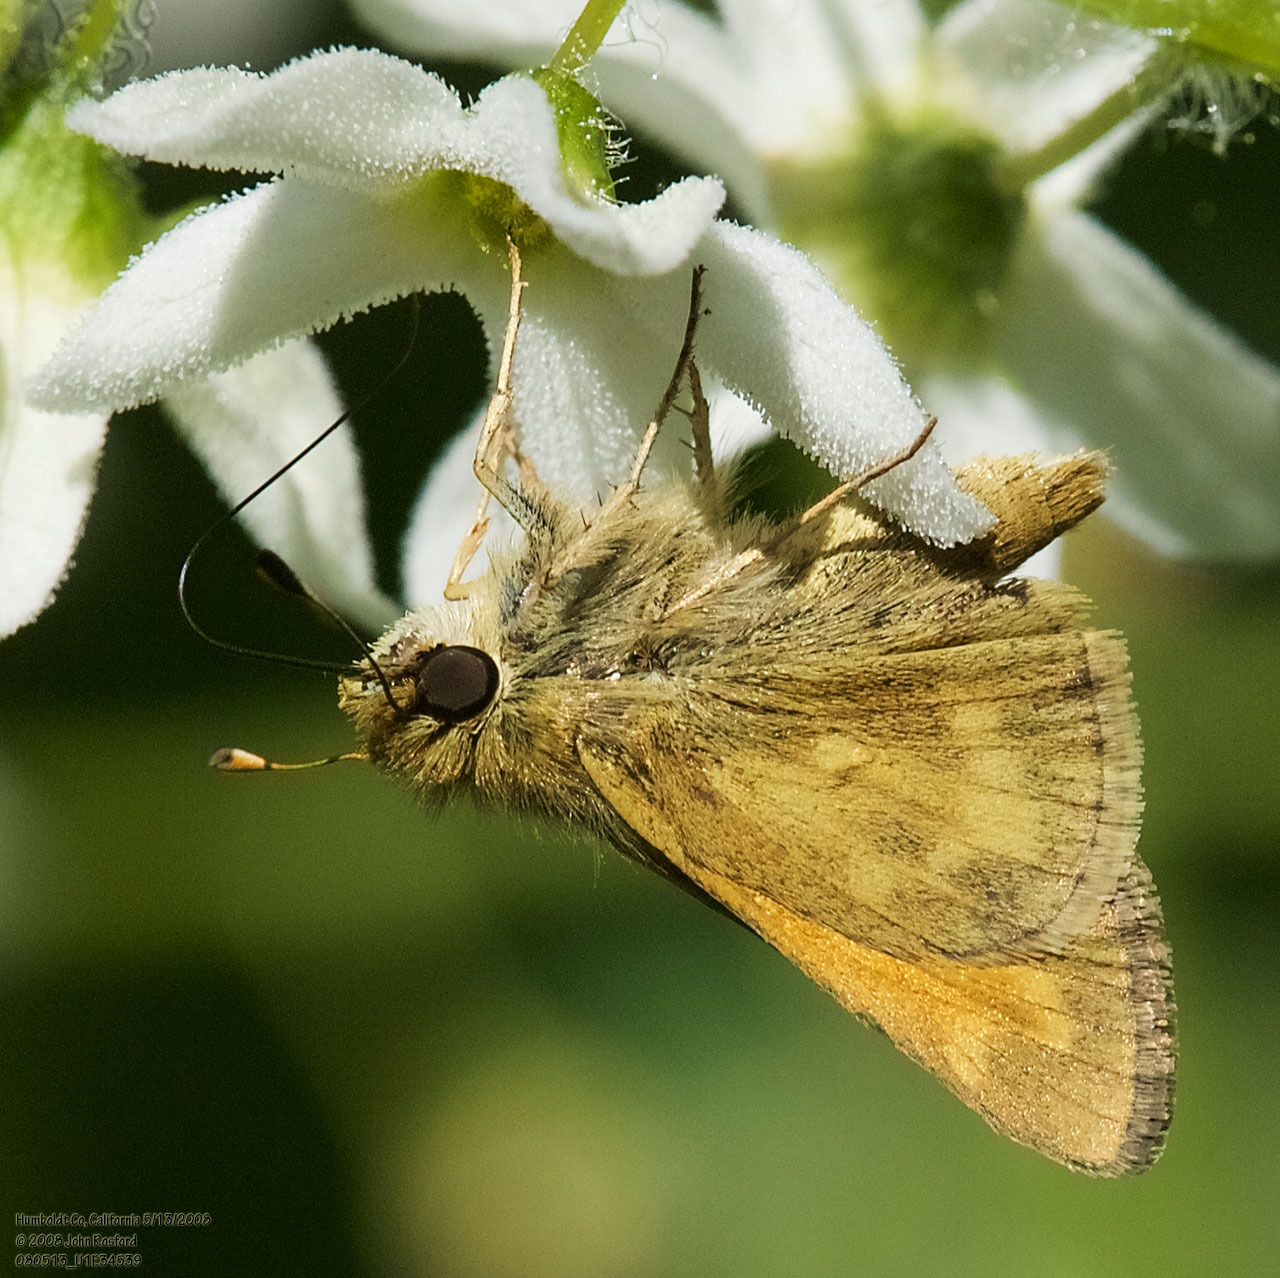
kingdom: Animalia
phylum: Arthropoda
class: Insecta
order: Lepidoptera
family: Hesperiidae
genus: Atalopedes
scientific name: Atalopedes campestris
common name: Sachem
